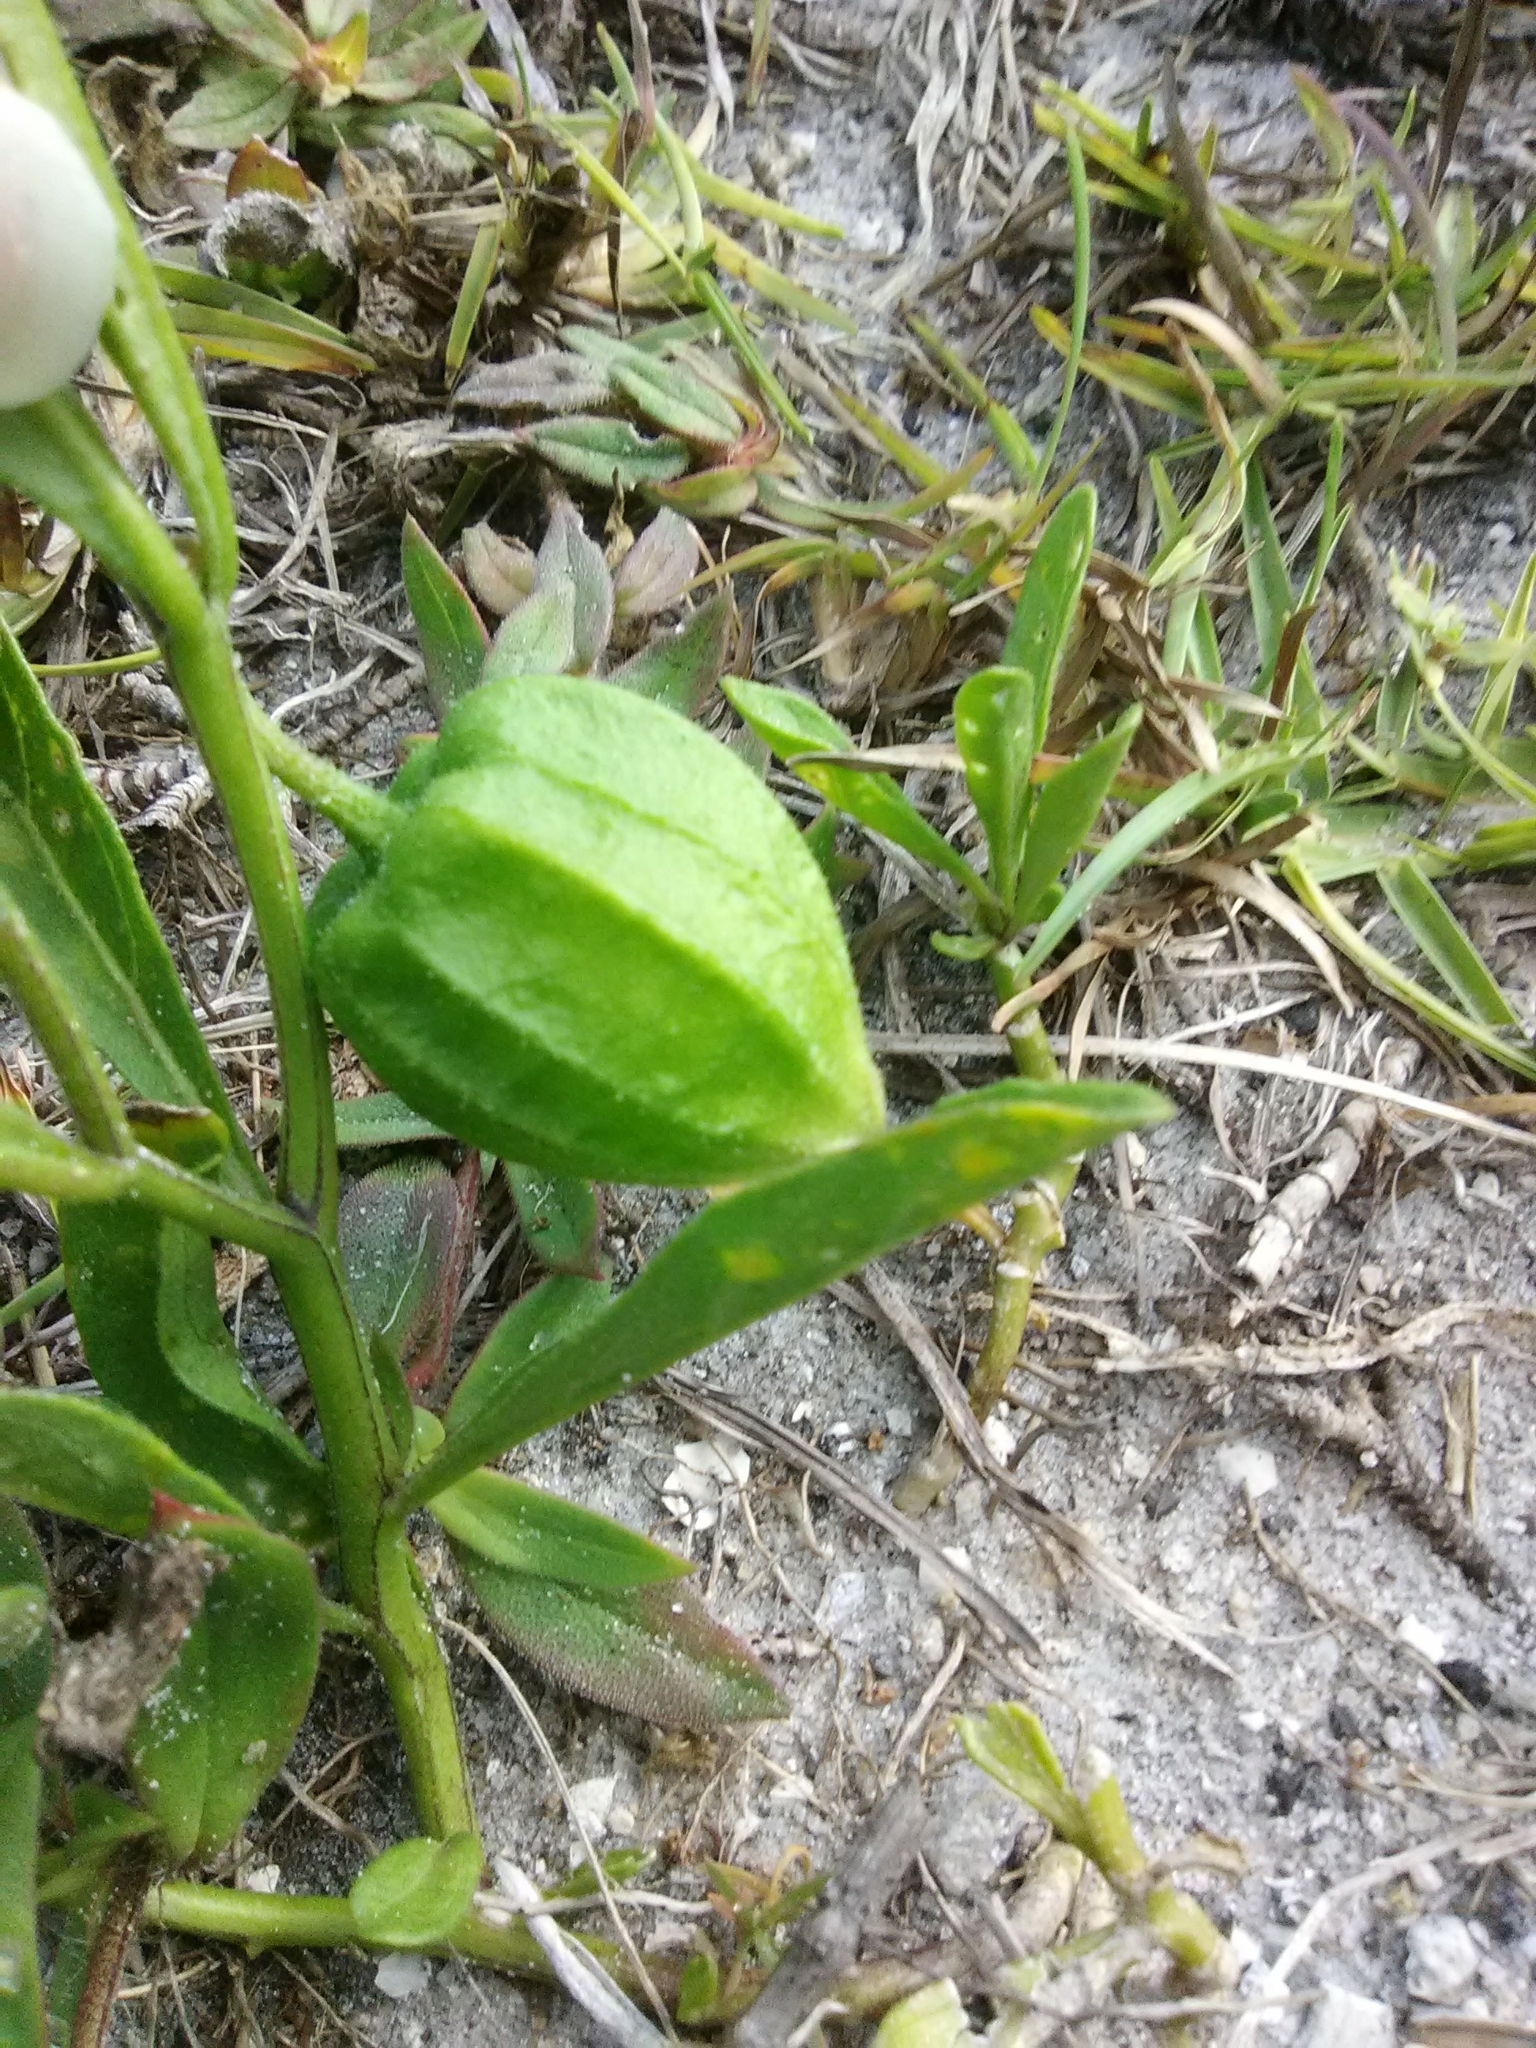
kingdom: Plantae
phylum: Tracheophyta
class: Magnoliopsida
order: Solanales
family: Solanaceae
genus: Physalis
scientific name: Physalis walteri
